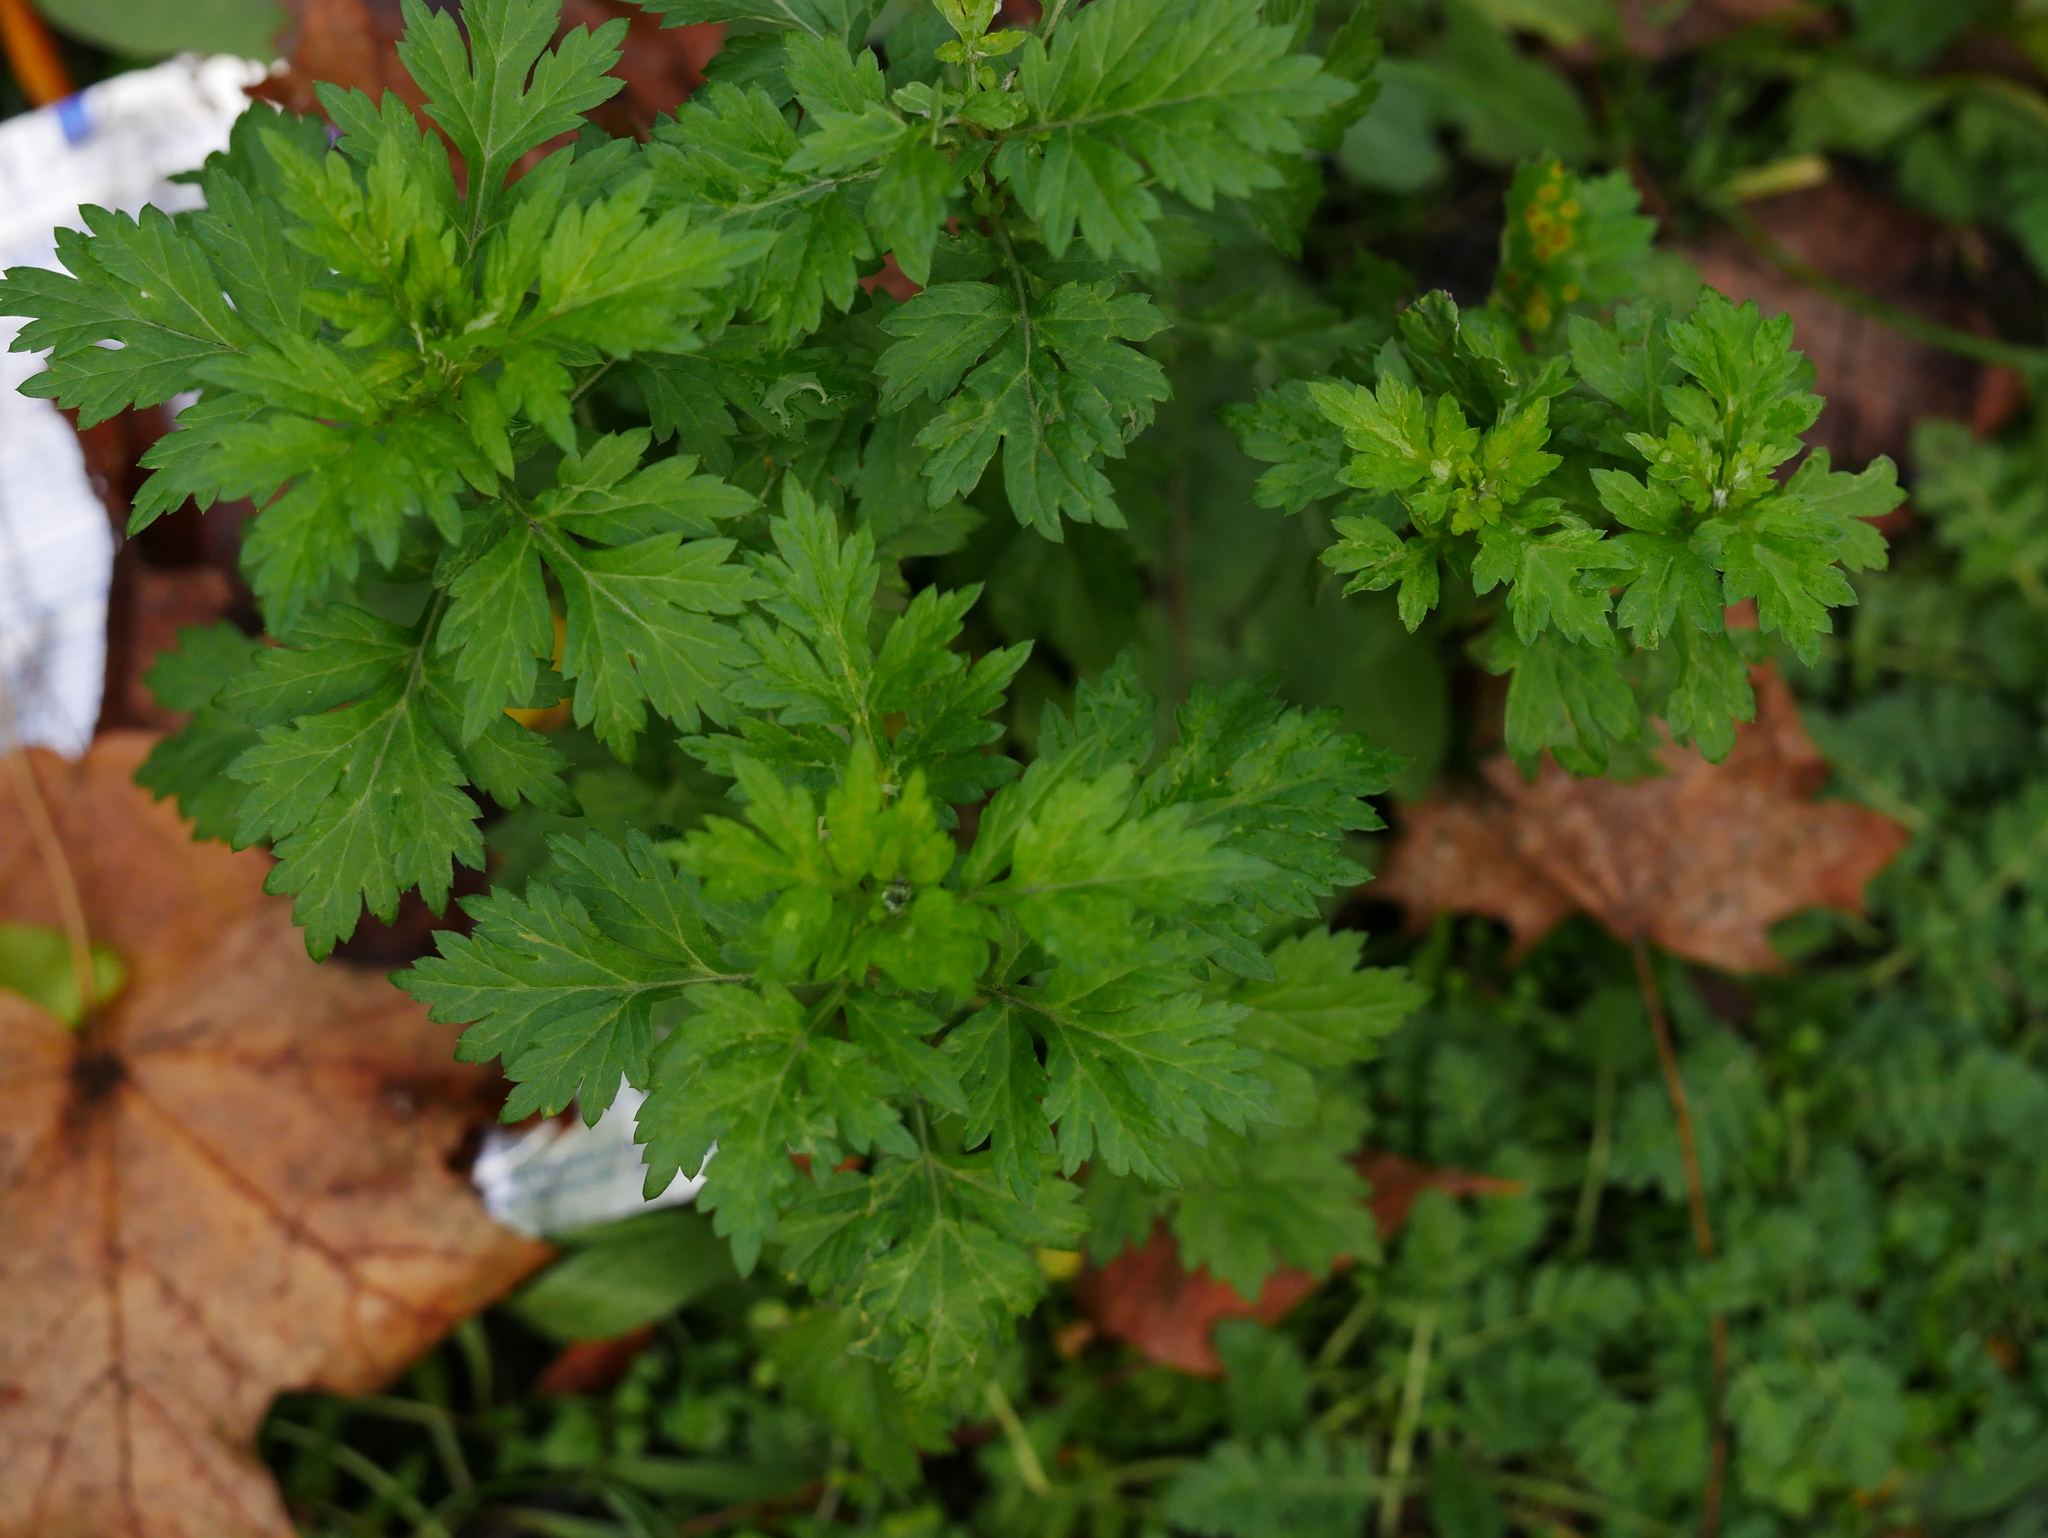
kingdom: Plantae
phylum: Tracheophyta
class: Magnoliopsida
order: Asterales
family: Asteraceae
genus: Artemisia
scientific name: Artemisia vulgaris
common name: Mugwort
